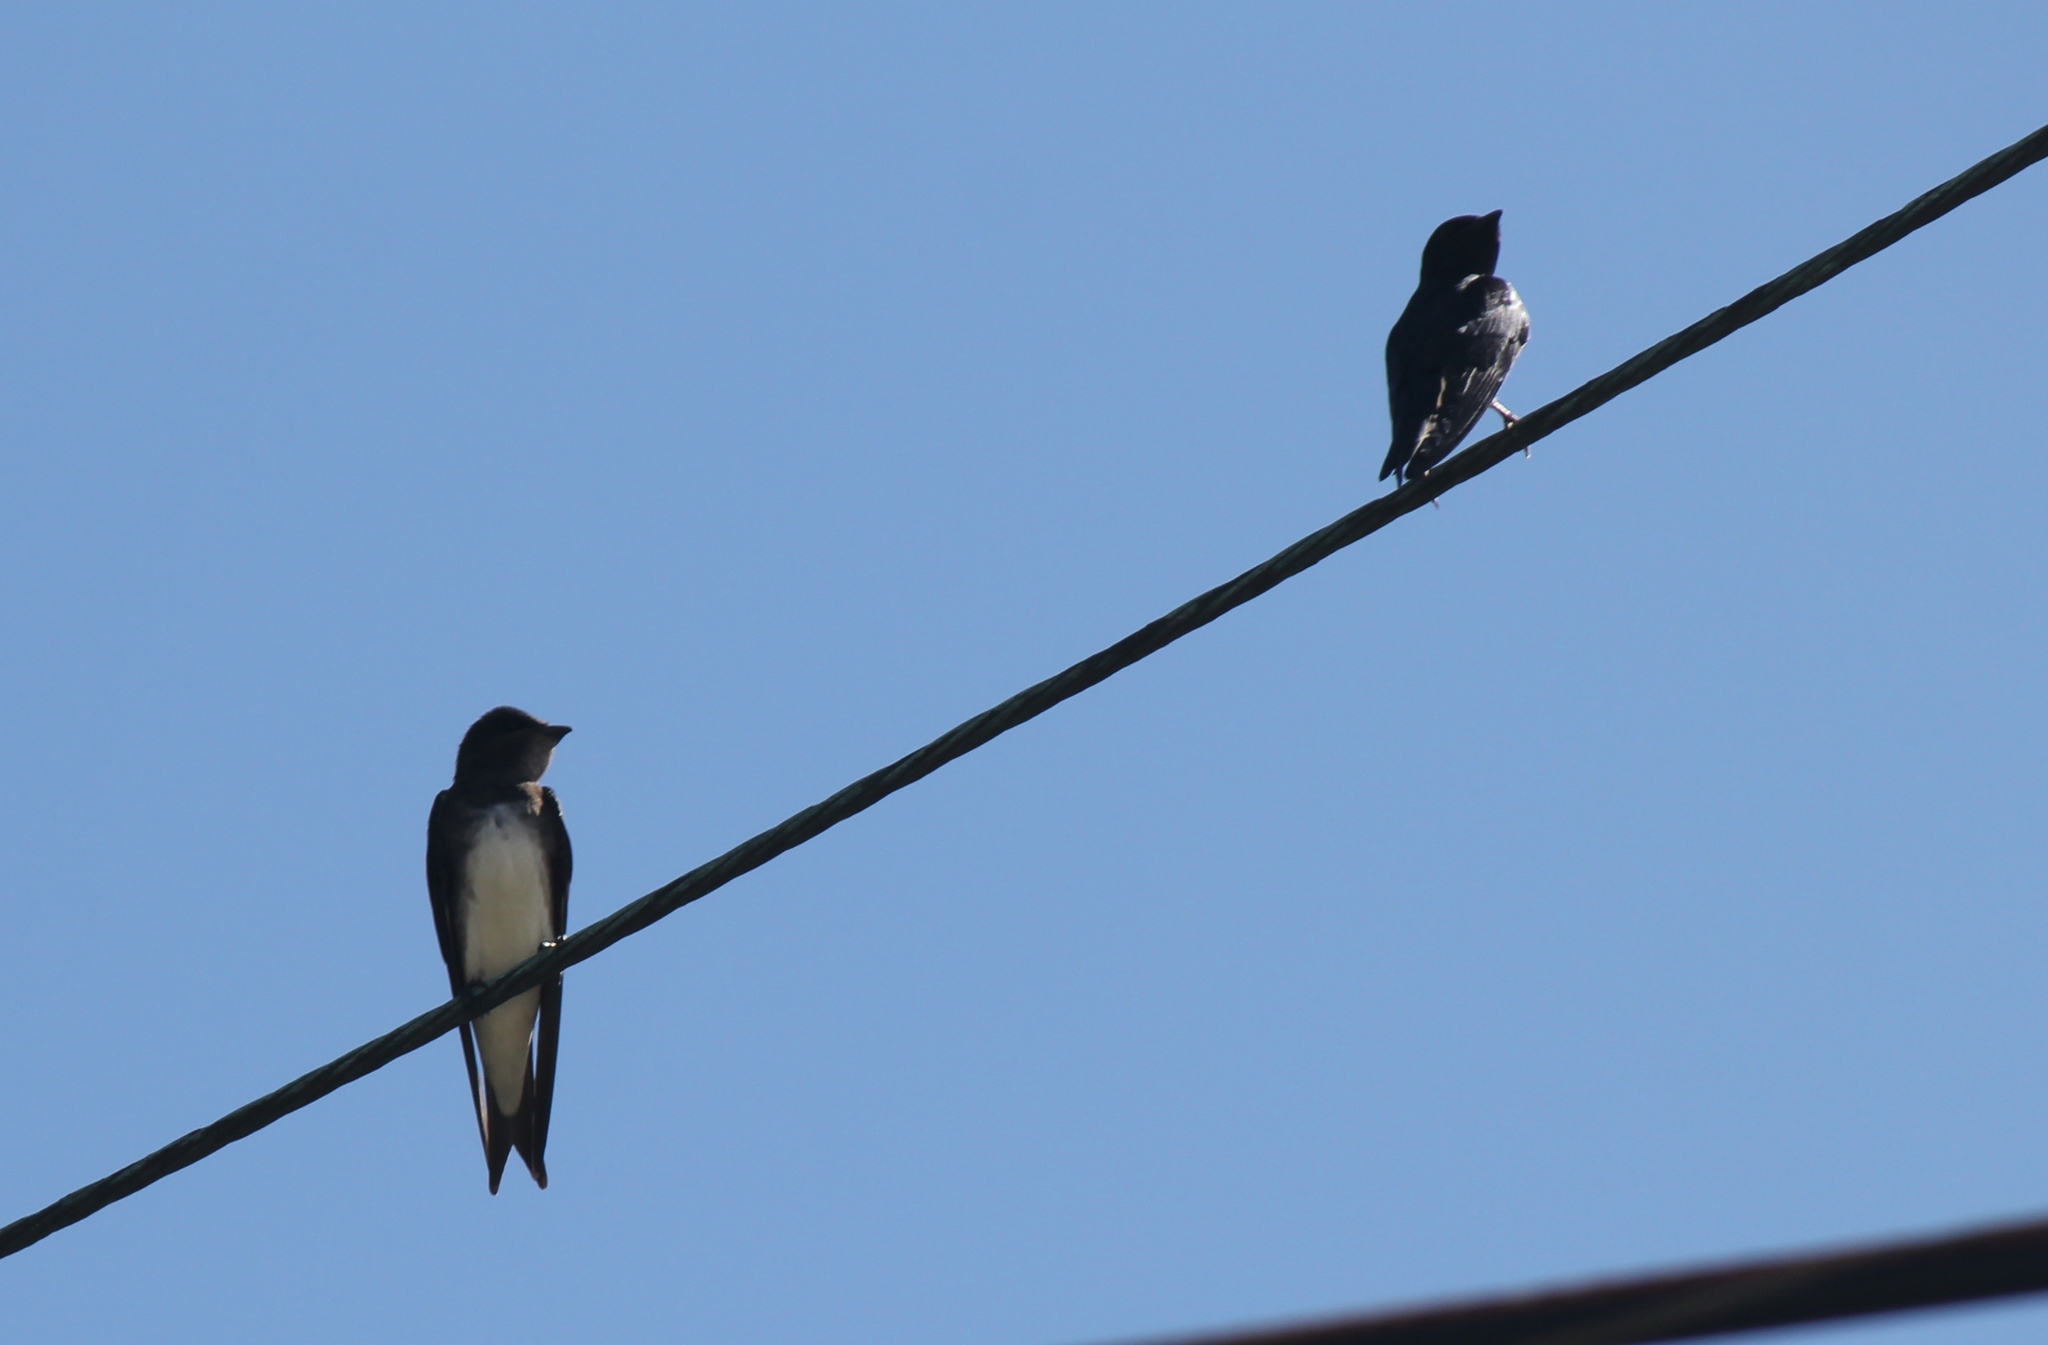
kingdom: Animalia
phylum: Chordata
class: Aves
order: Passeriformes
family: Hirundinidae
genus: Progne
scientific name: Progne dominicensis
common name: Caribbean martin
